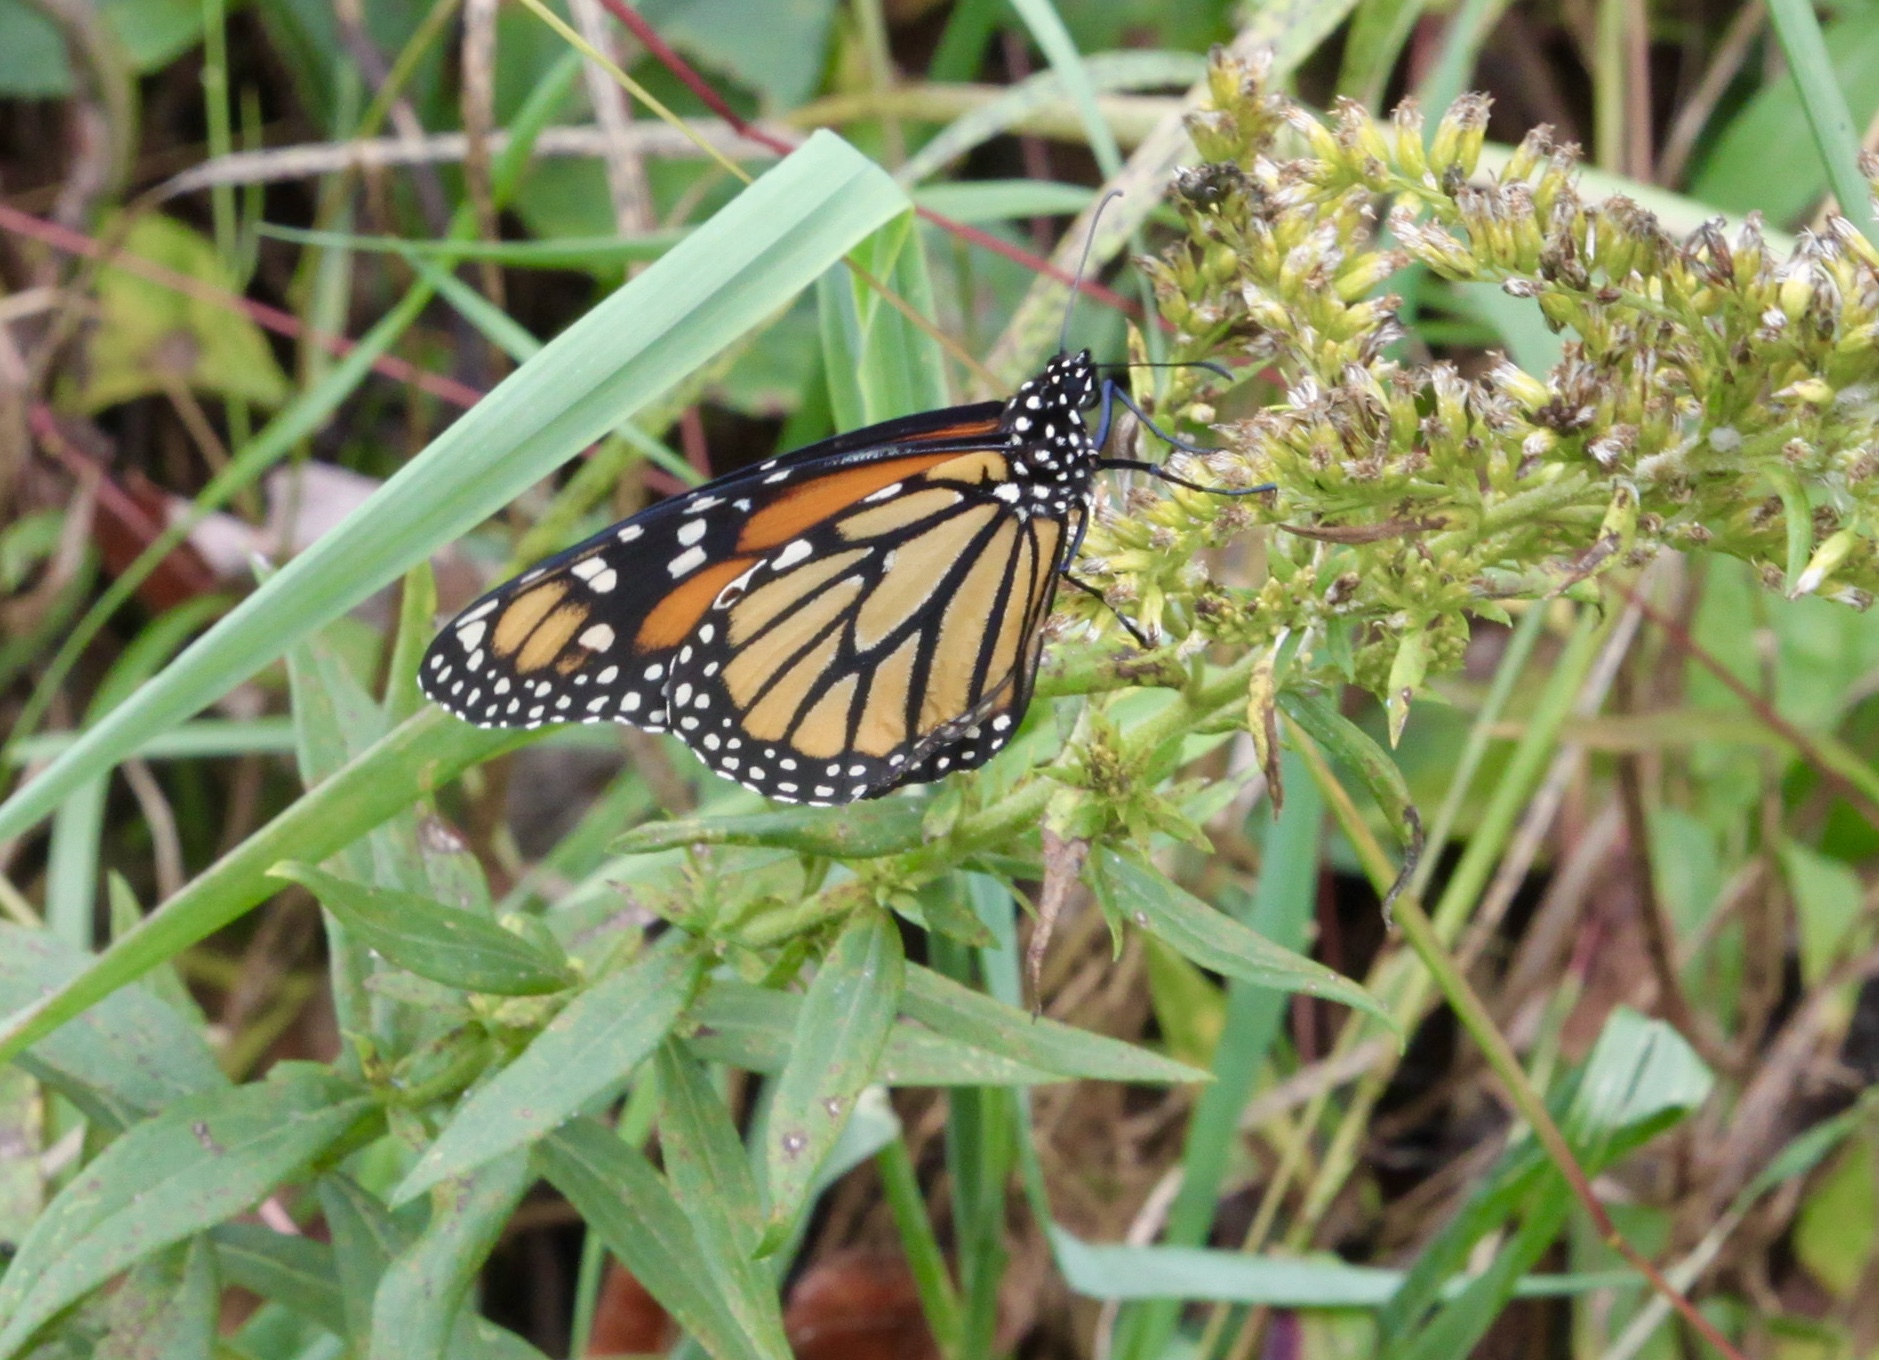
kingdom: Animalia
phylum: Arthropoda
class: Insecta
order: Lepidoptera
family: Nymphalidae
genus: Danaus
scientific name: Danaus plexippus
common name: Monarch
